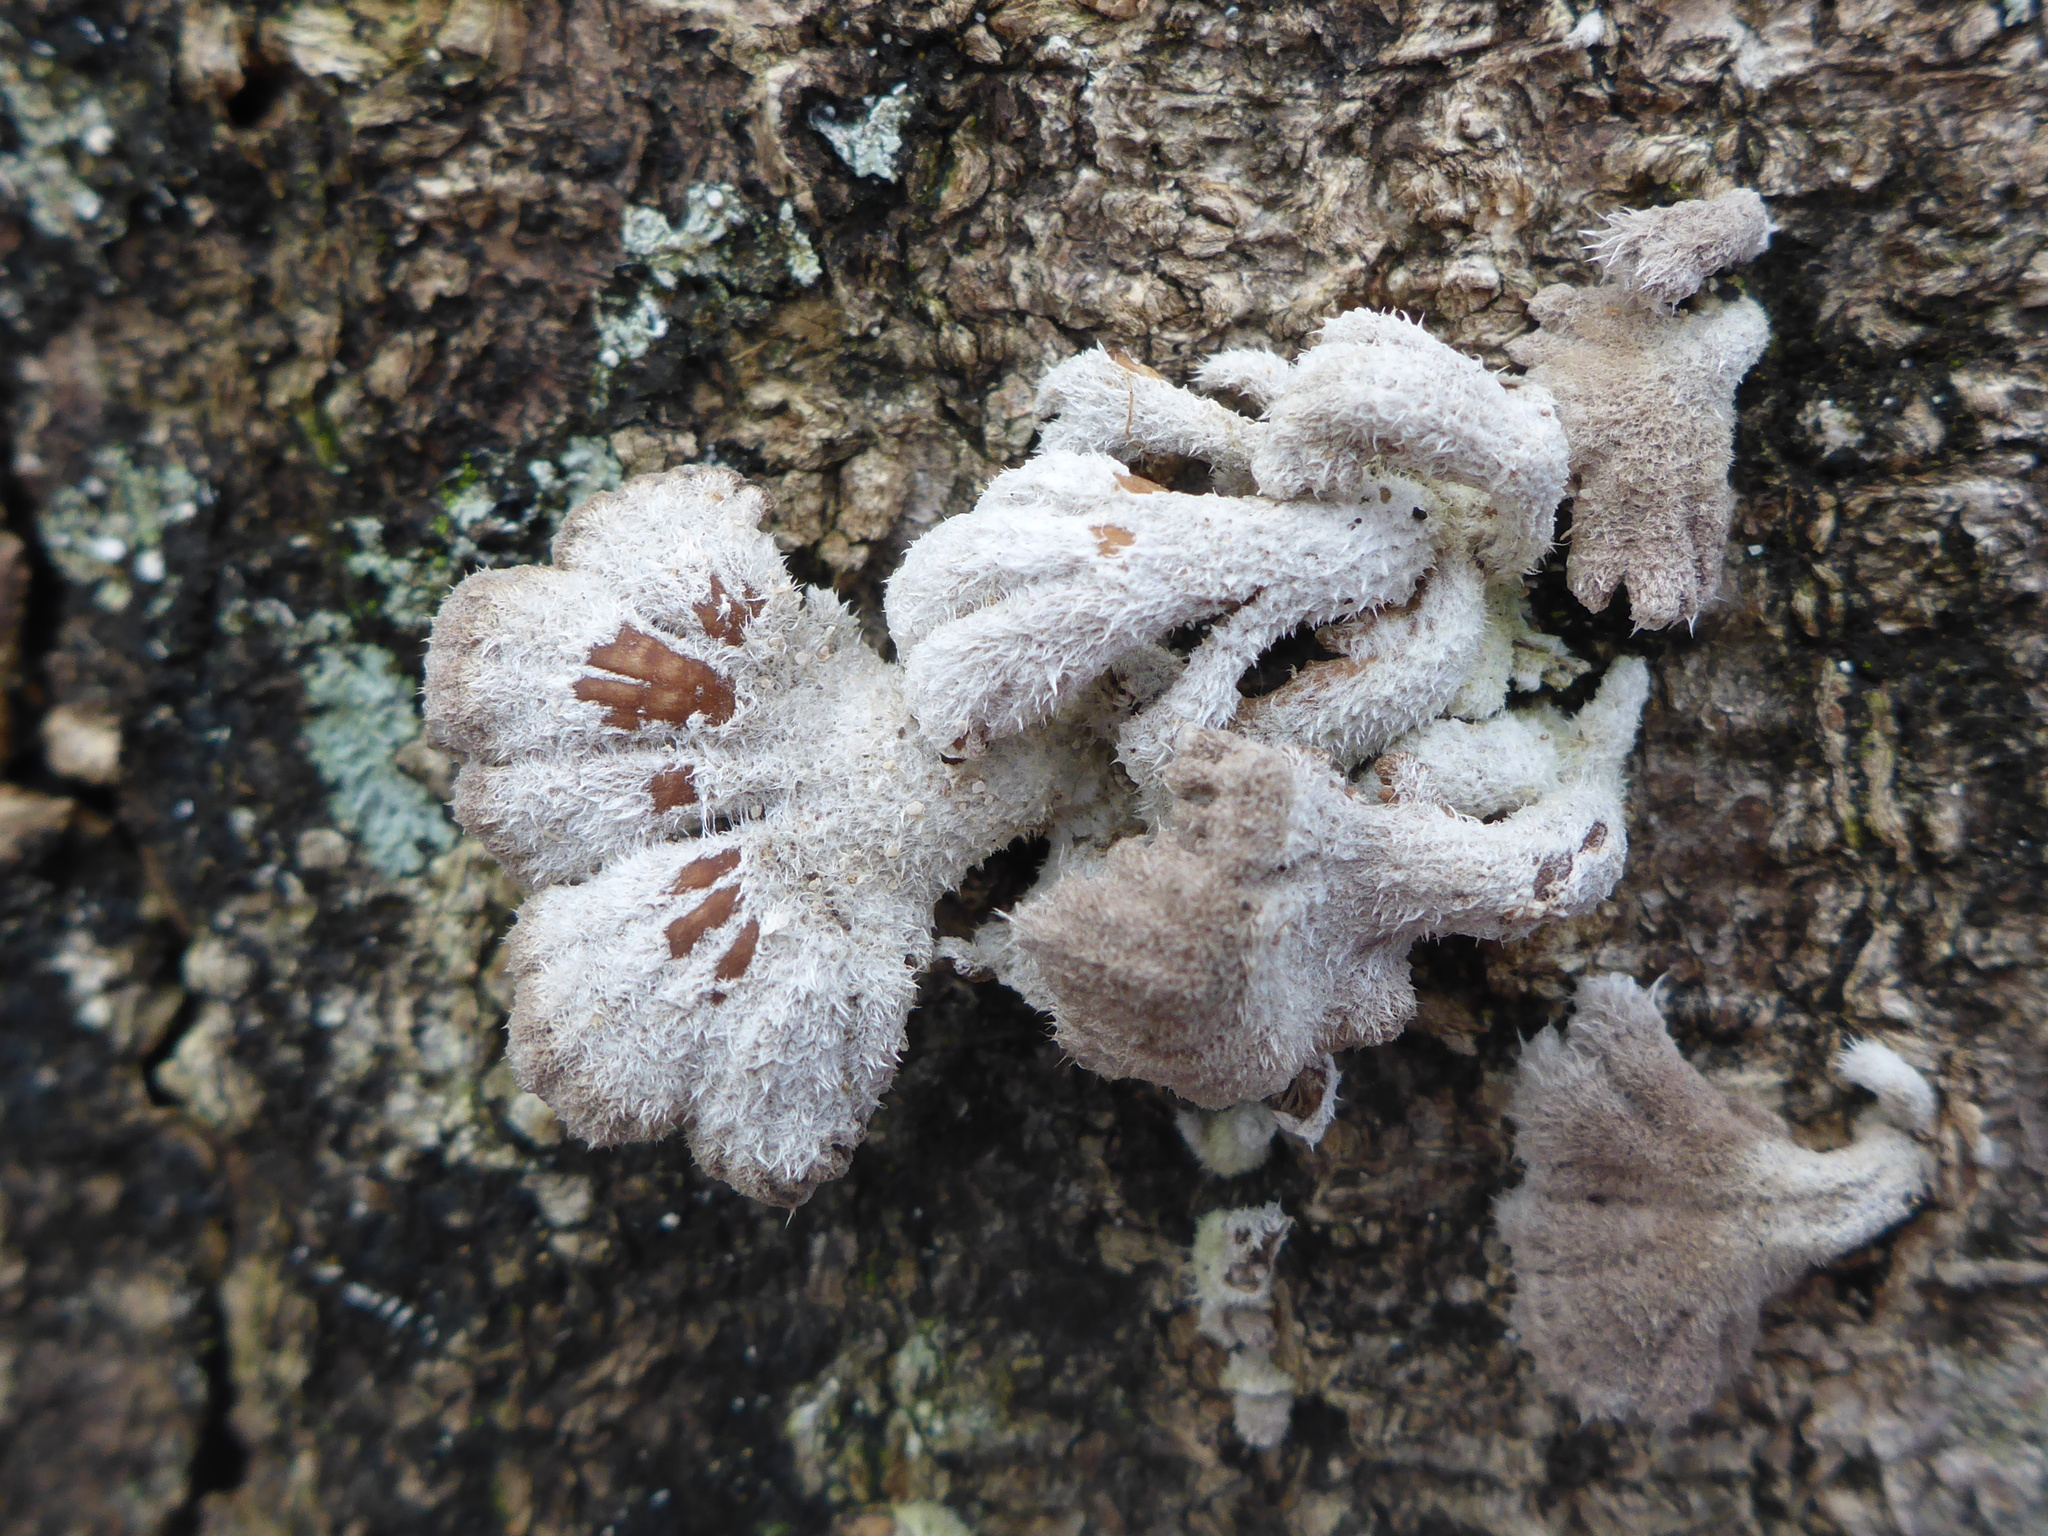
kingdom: Fungi
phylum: Basidiomycota
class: Agaricomycetes
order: Agaricales
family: Schizophyllaceae
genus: Schizophyllum
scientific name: Schizophyllum commune
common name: Common porecrust
